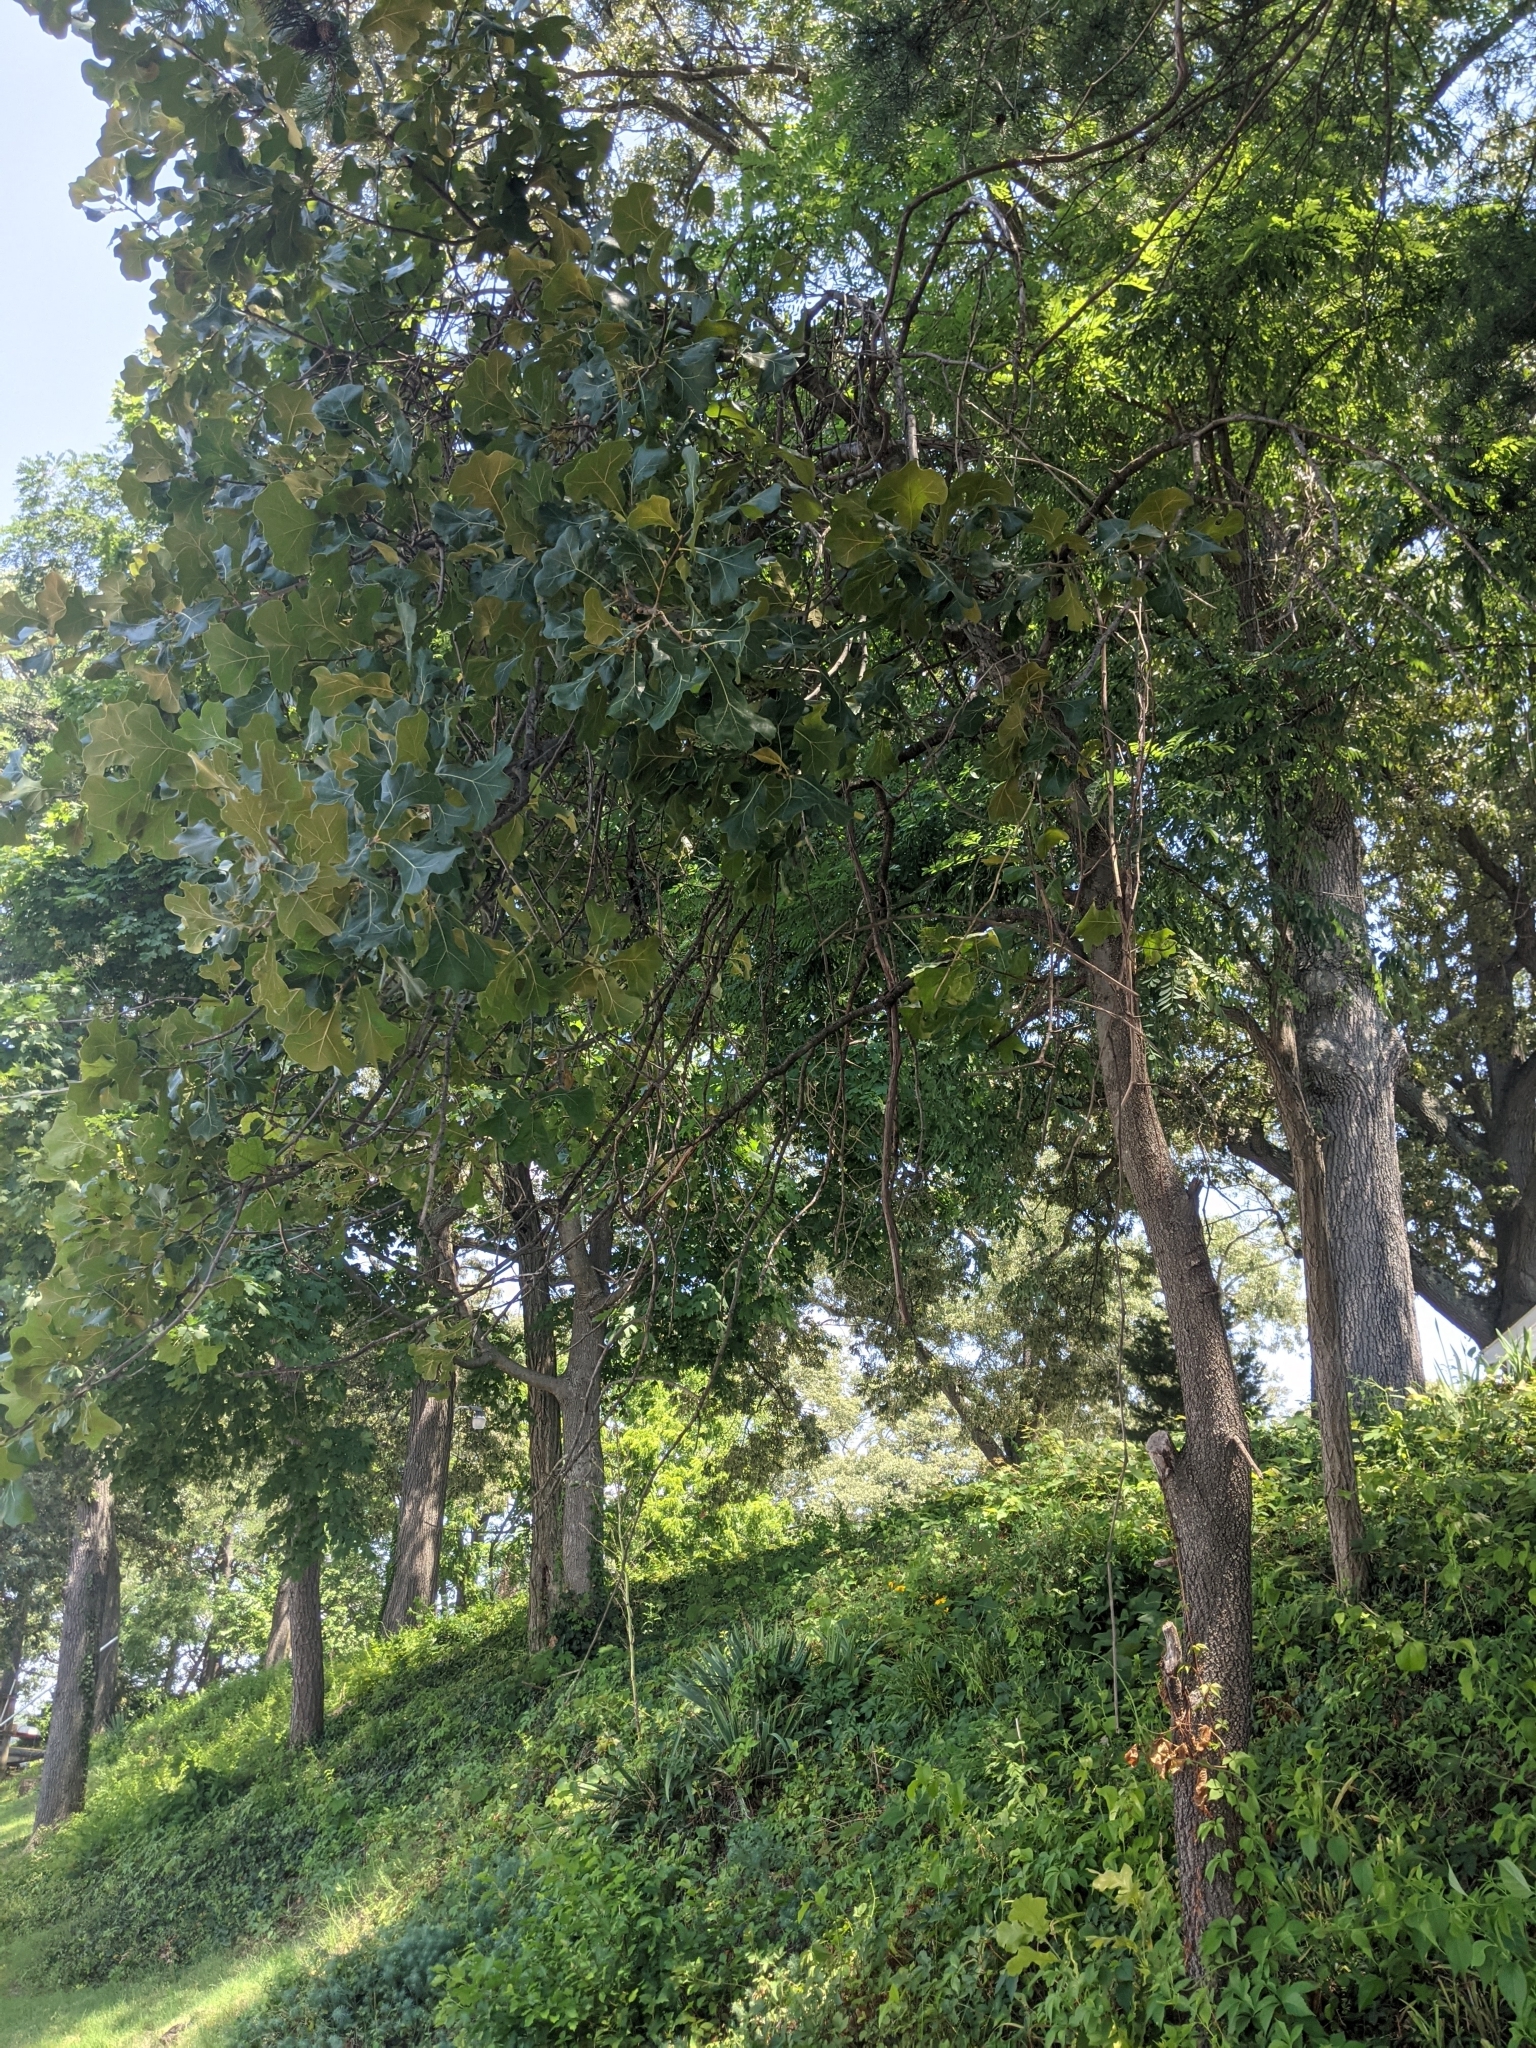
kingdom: Plantae
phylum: Tracheophyta
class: Magnoliopsida
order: Fagales
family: Fagaceae
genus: Quercus
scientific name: Quercus marilandica
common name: Blackjack oak
